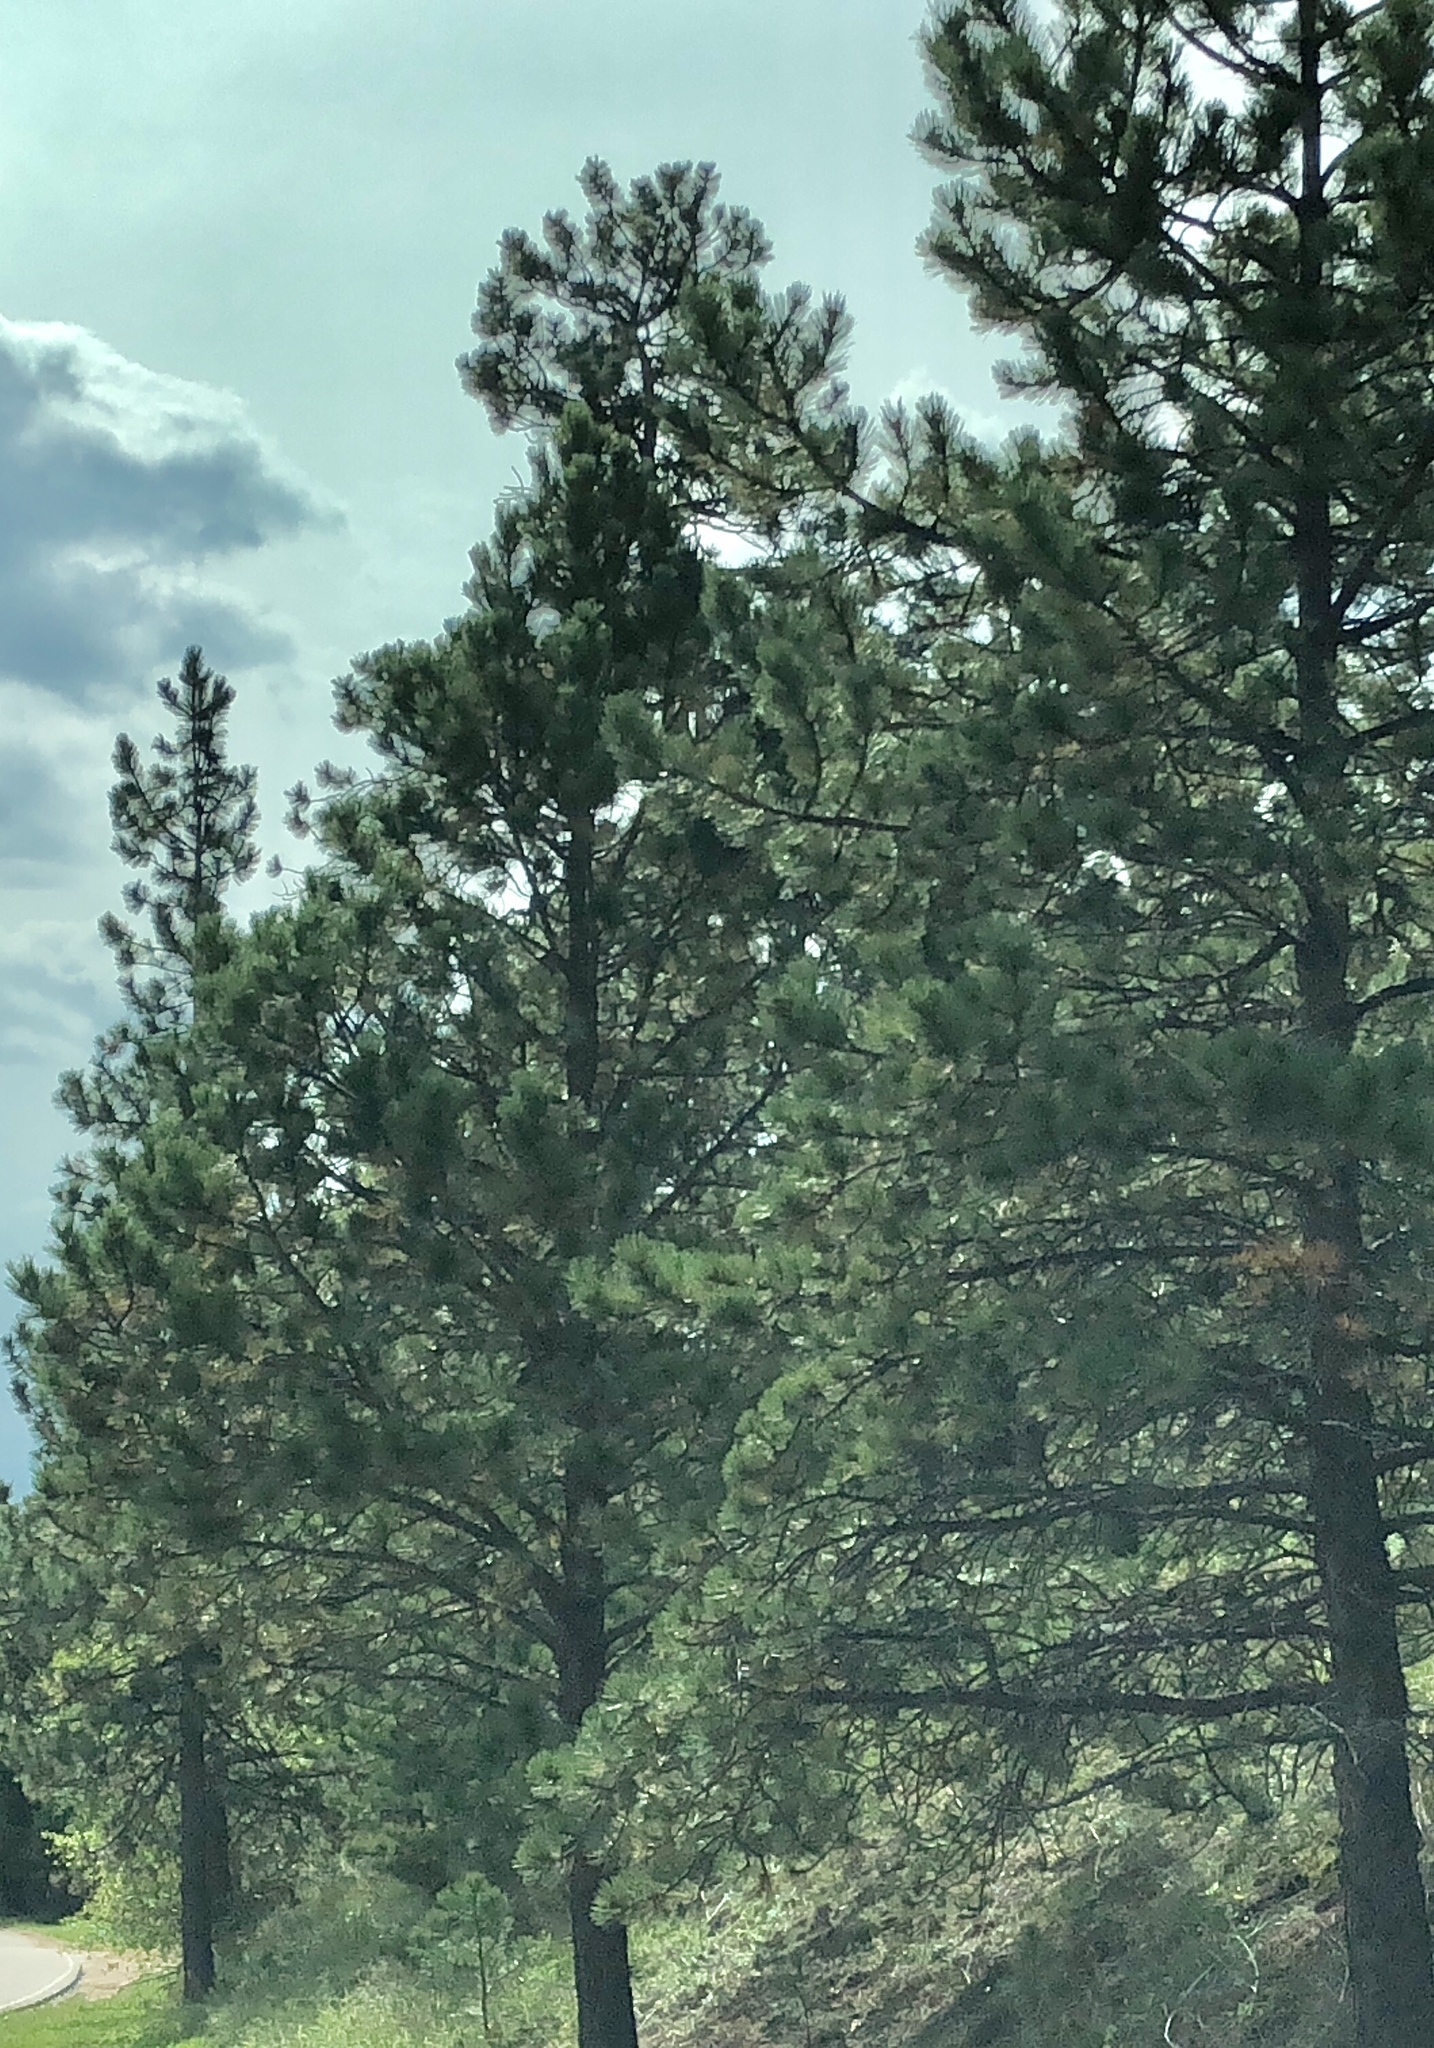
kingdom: Plantae
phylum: Tracheophyta
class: Pinopsida
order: Pinales
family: Pinaceae
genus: Pinus
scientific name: Pinus ponderosa
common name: Western yellow-pine
